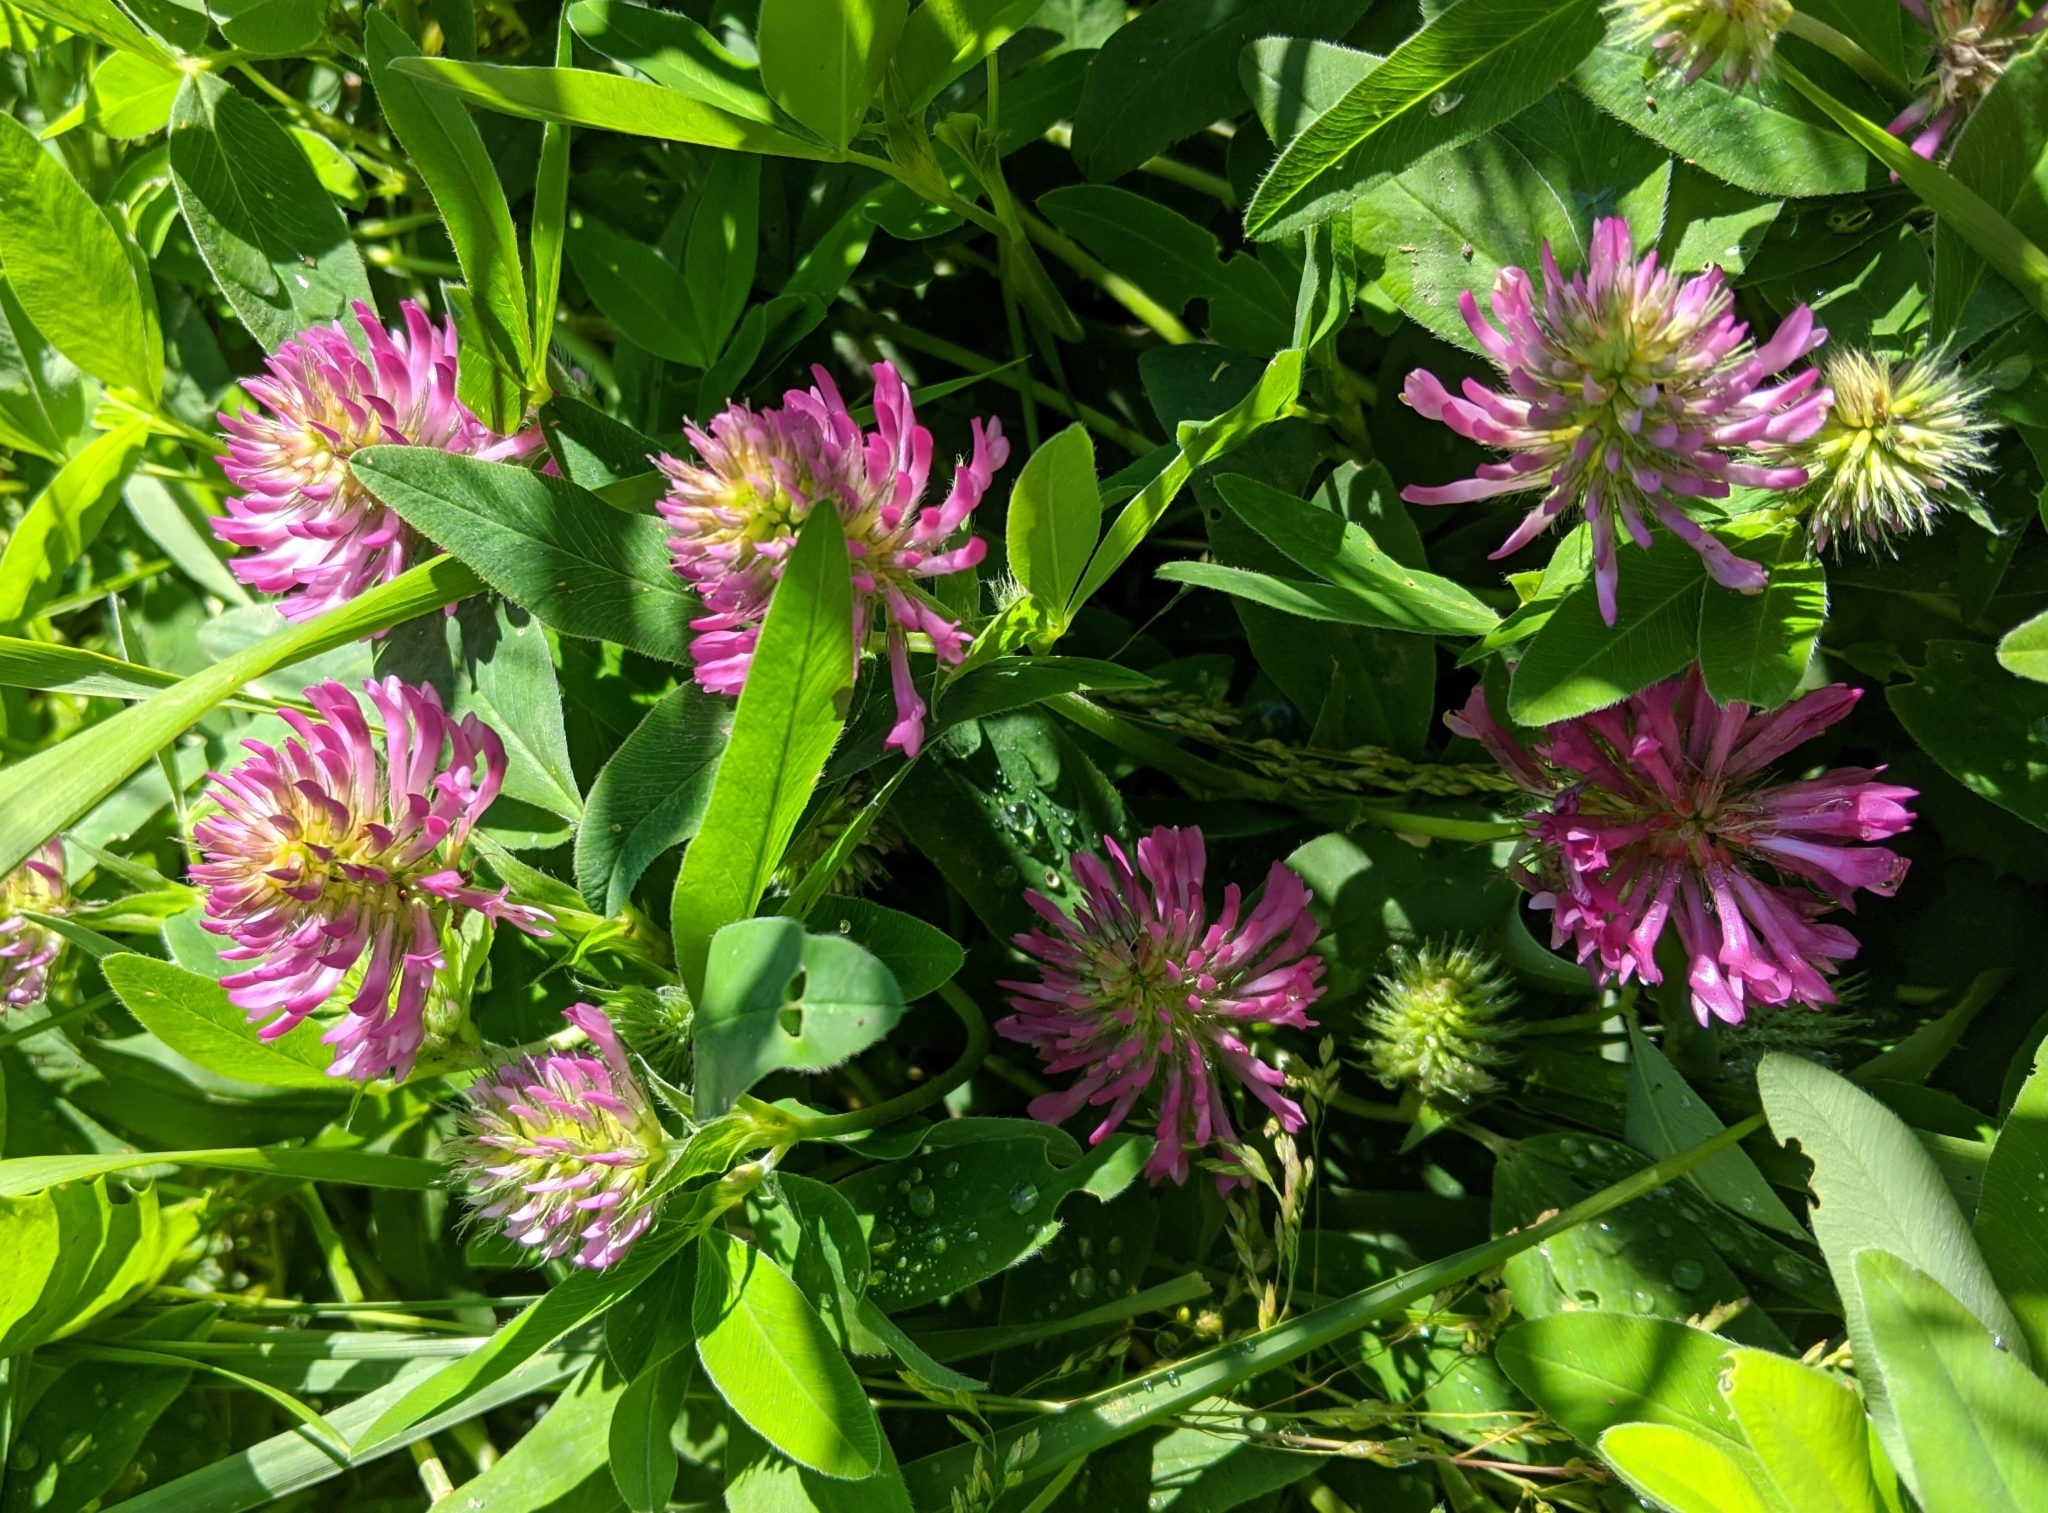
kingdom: Plantae
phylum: Tracheophyta
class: Magnoliopsida
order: Fabales
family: Fabaceae
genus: Trifolium
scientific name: Trifolium medium
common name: Zigzag clover
